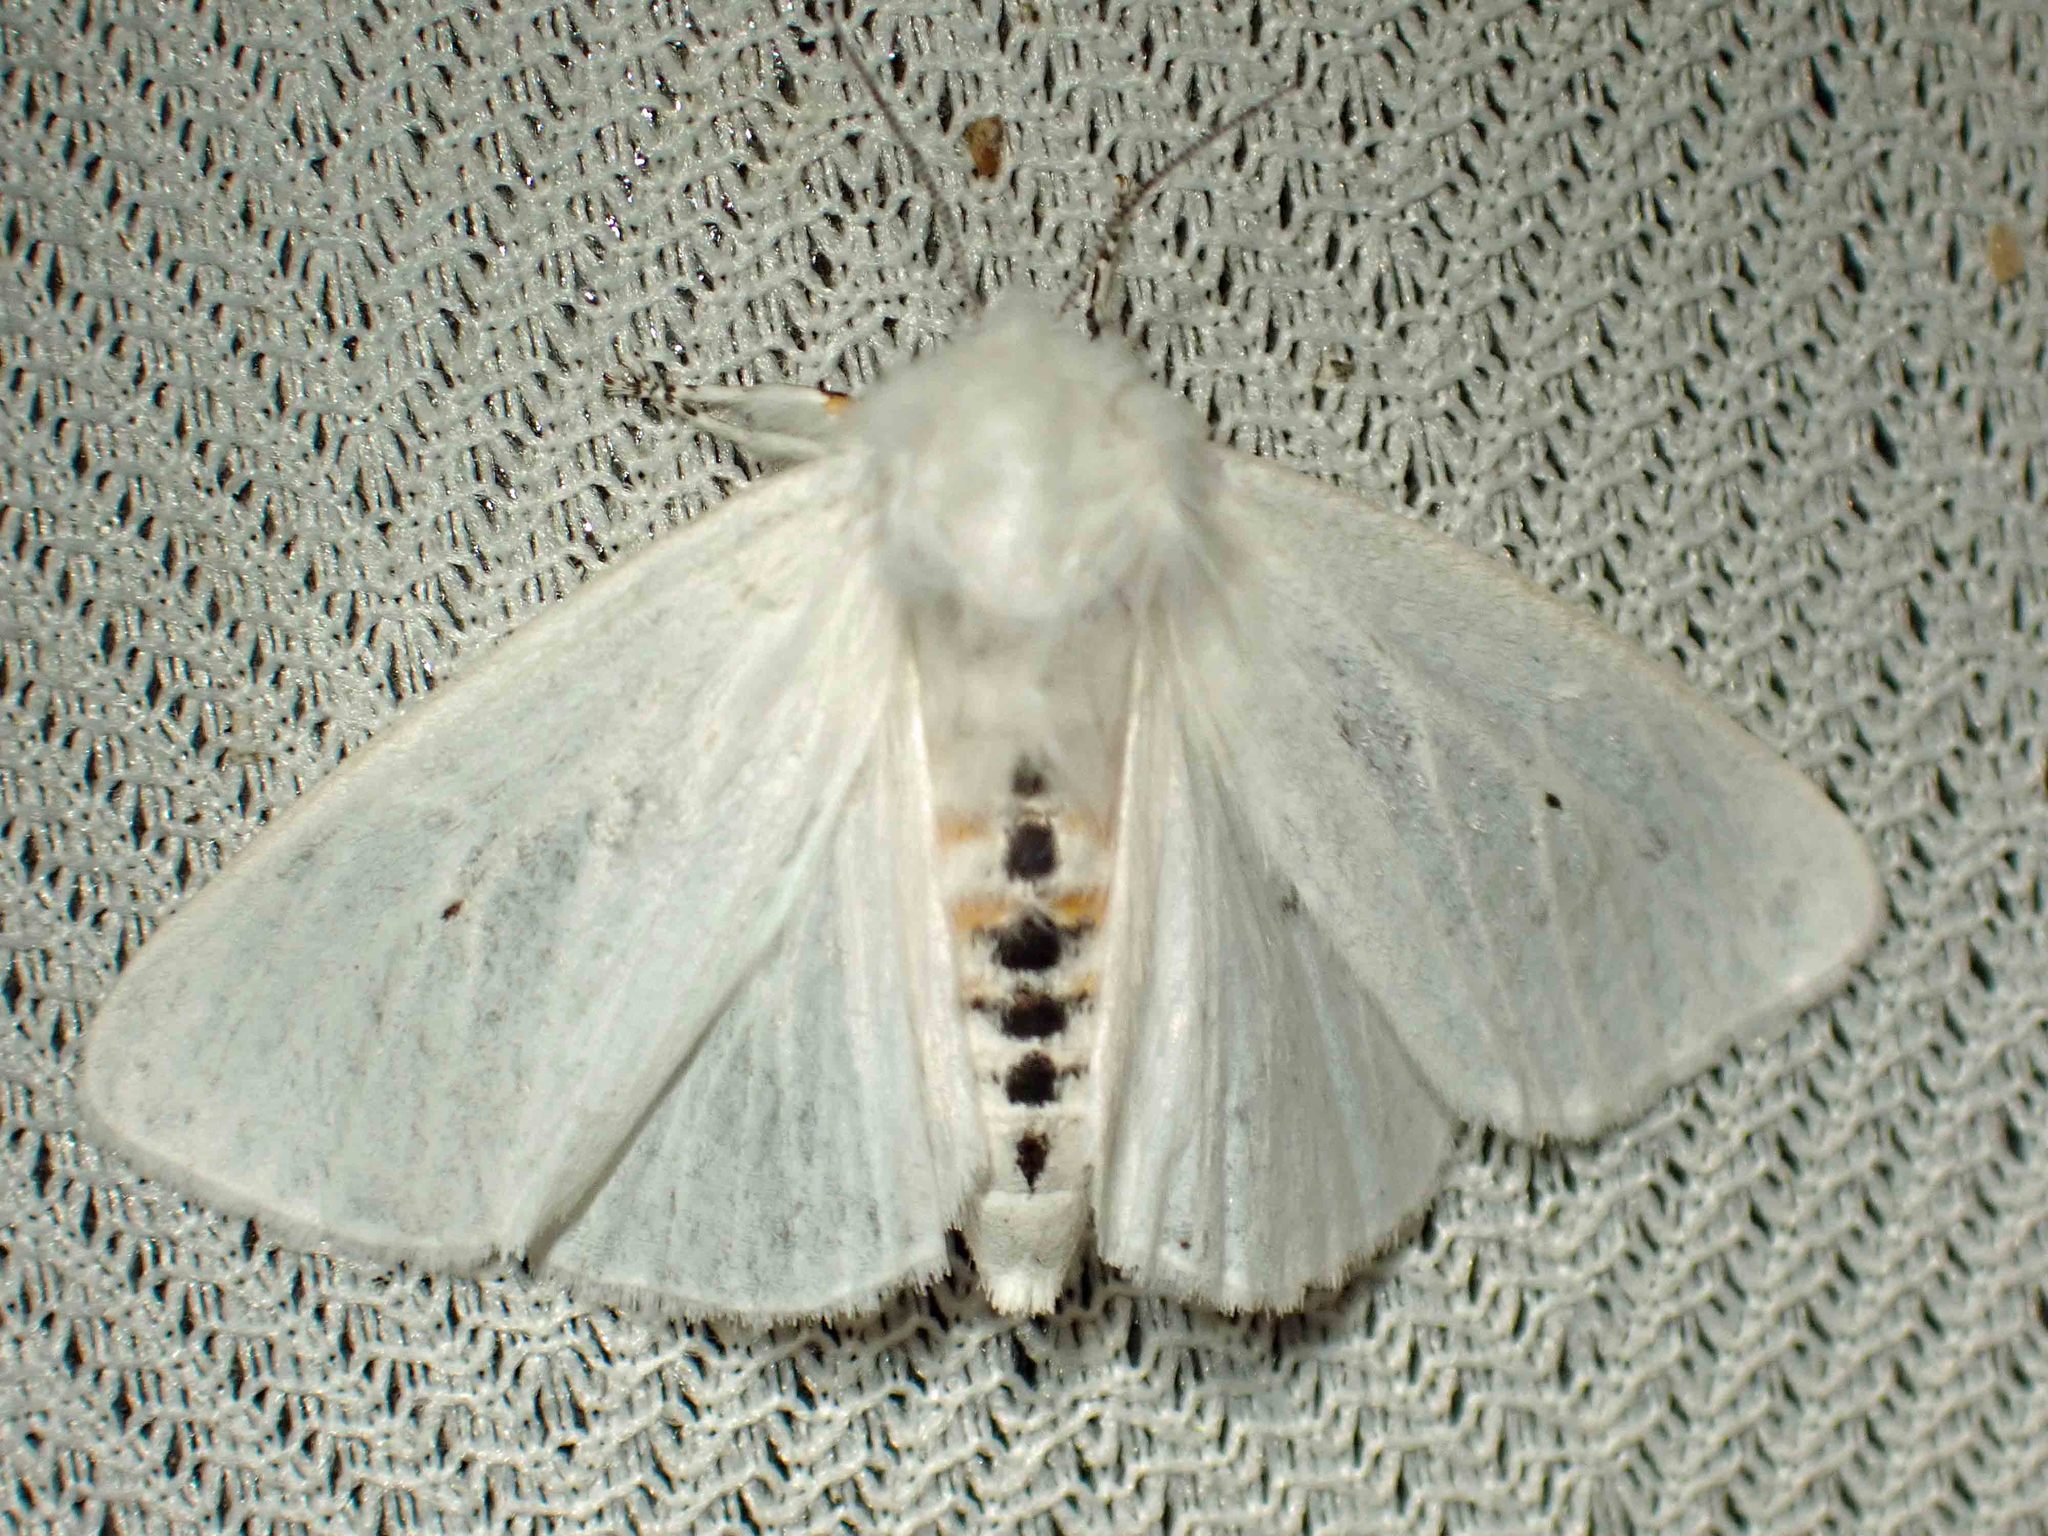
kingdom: Animalia
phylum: Arthropoda
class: Insecta
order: Lepidoptera
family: Erebidae
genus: Spilosoma
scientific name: Spilosoma virginica
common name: Virginia tiger moth
